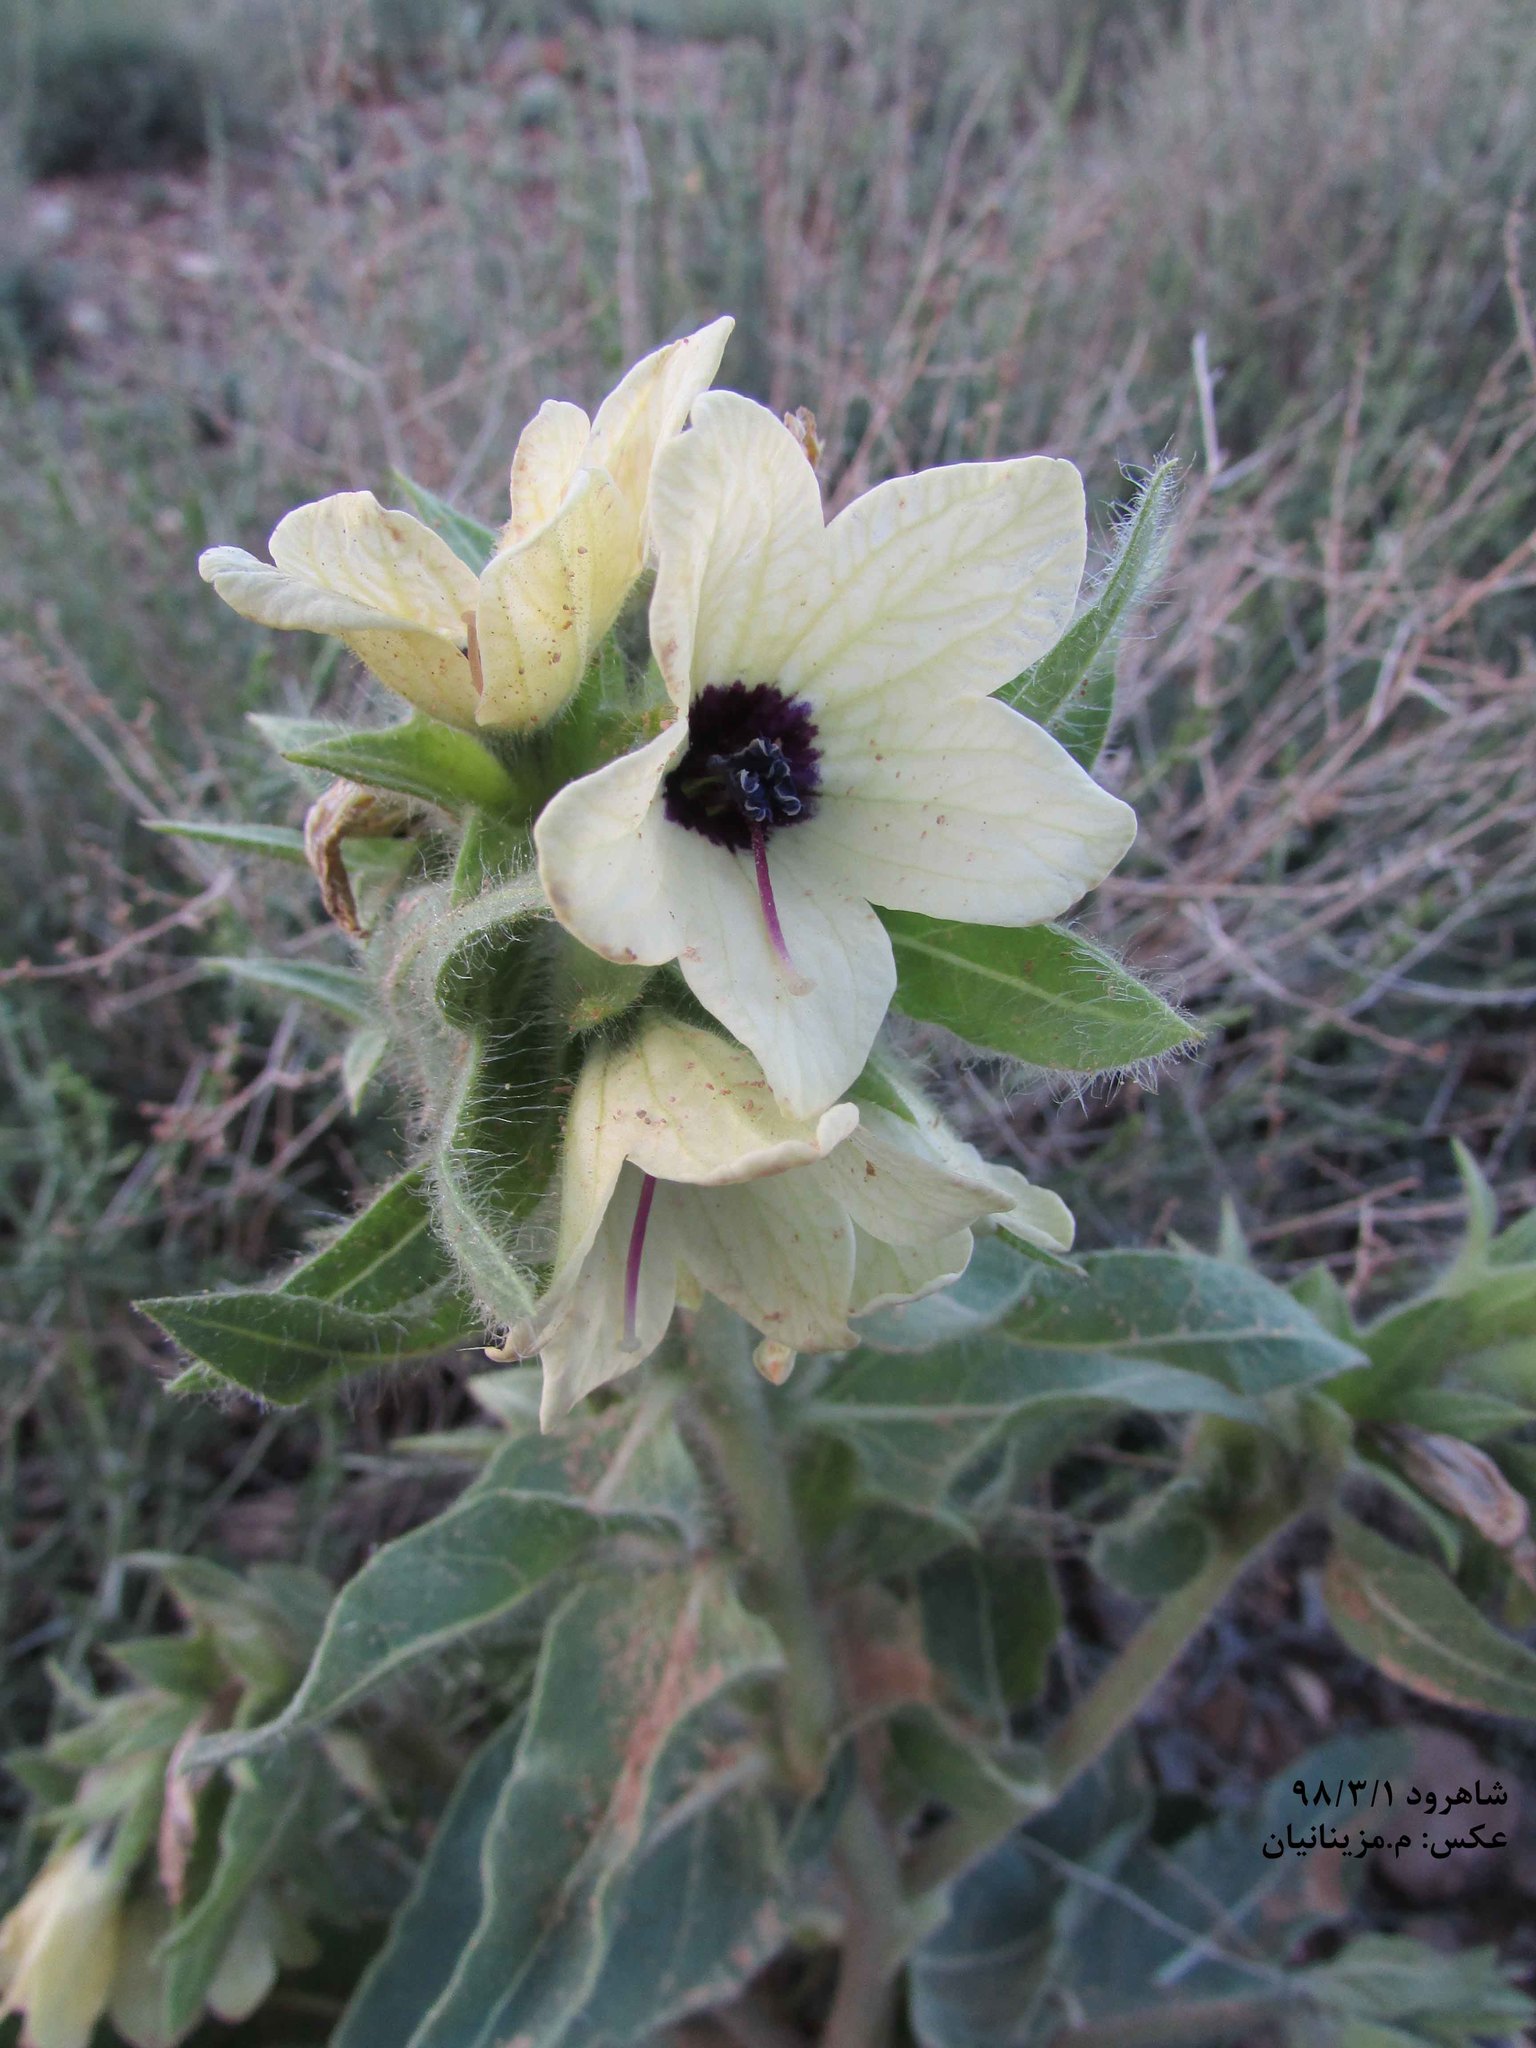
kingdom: Plantae
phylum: Tracheophyta
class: Magnoliopsida
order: Solanales
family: Solanaceae
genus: Hyoscyamus
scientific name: Hyoscyamus niger
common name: Henbane
